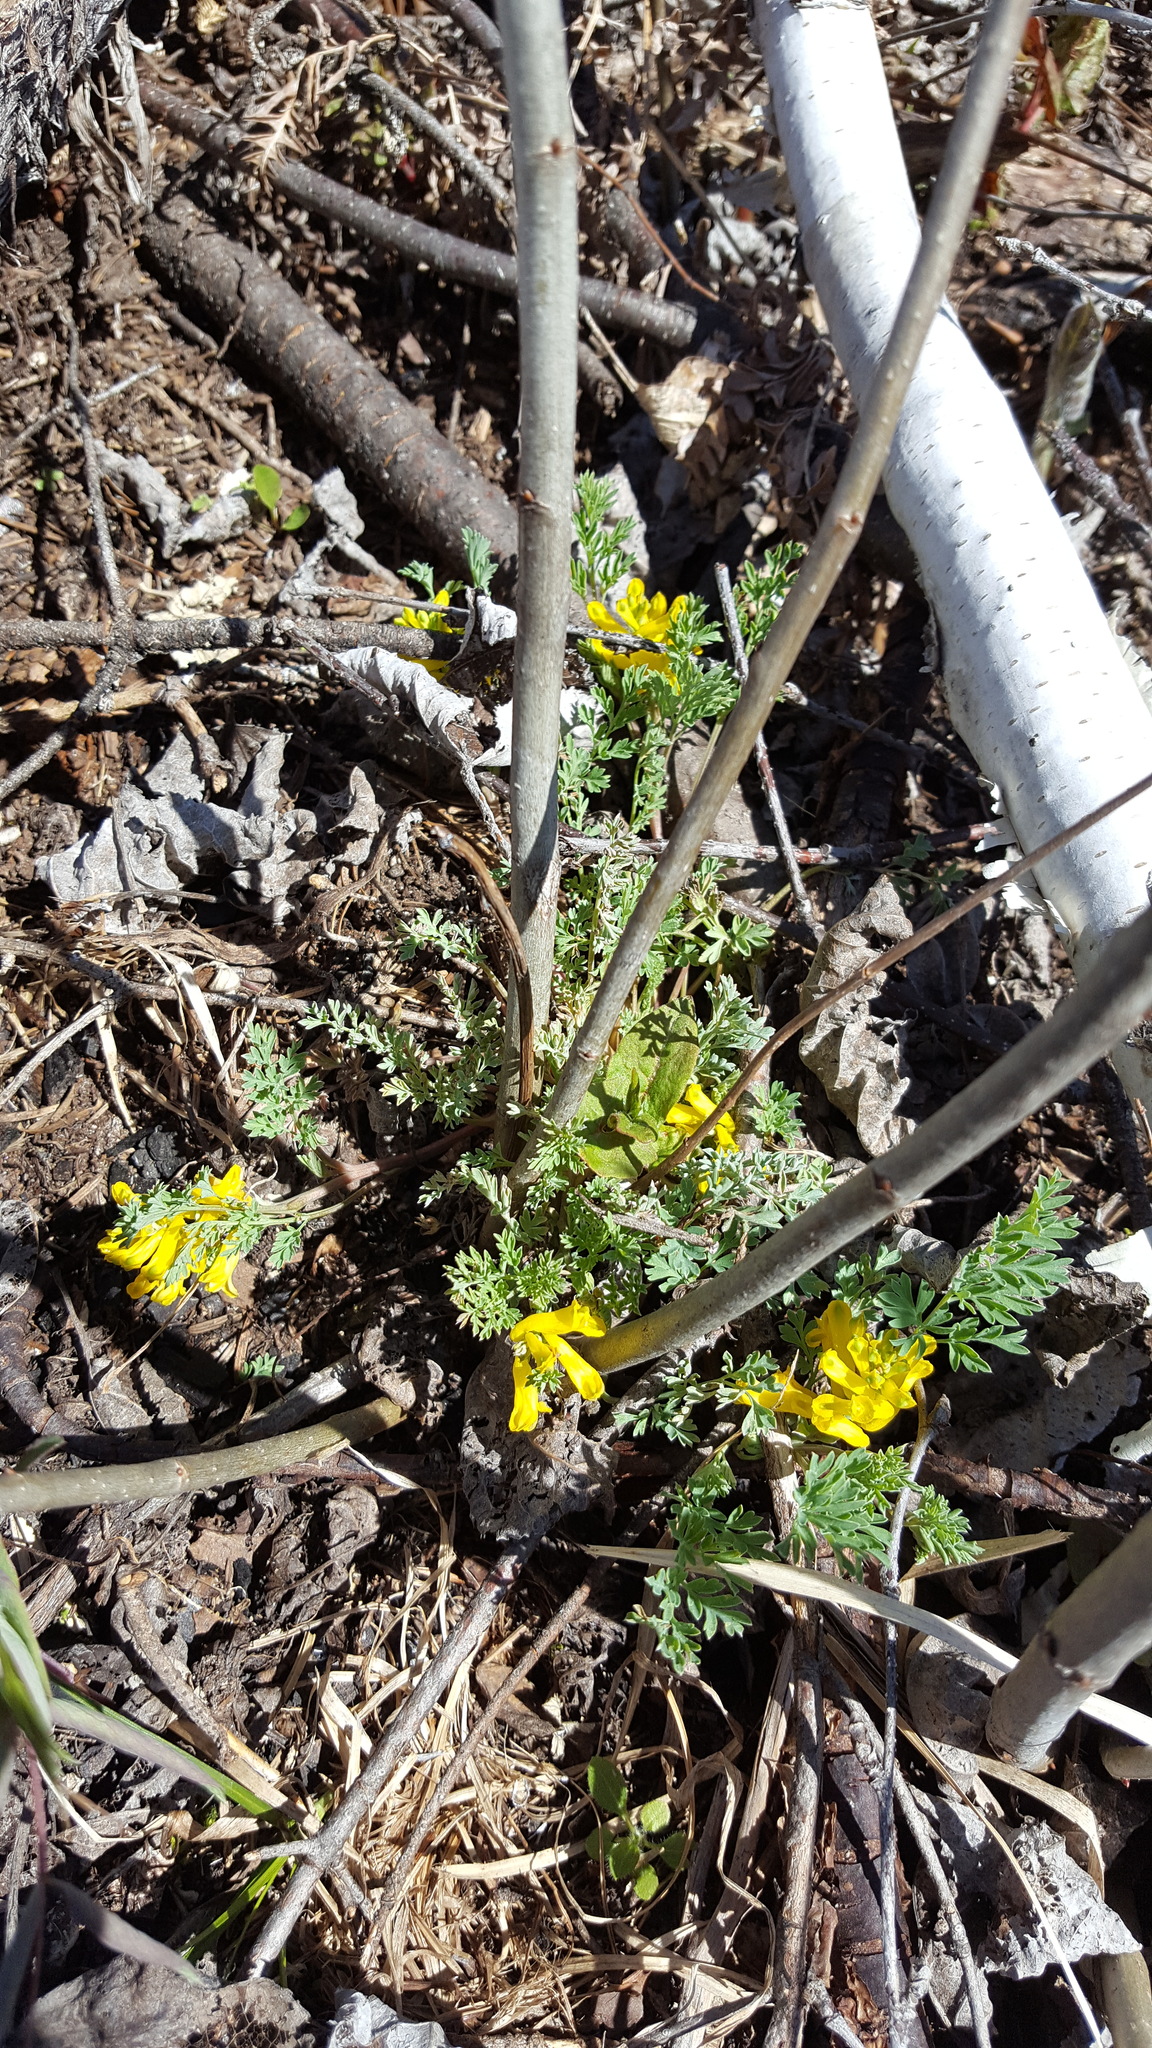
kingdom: Plantae
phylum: Tracheophyta
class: Magnoliopsida
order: Ranunculales
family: Papaveraceae
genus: Corydalis
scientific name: Corydalis aurea
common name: Golden corydalis
